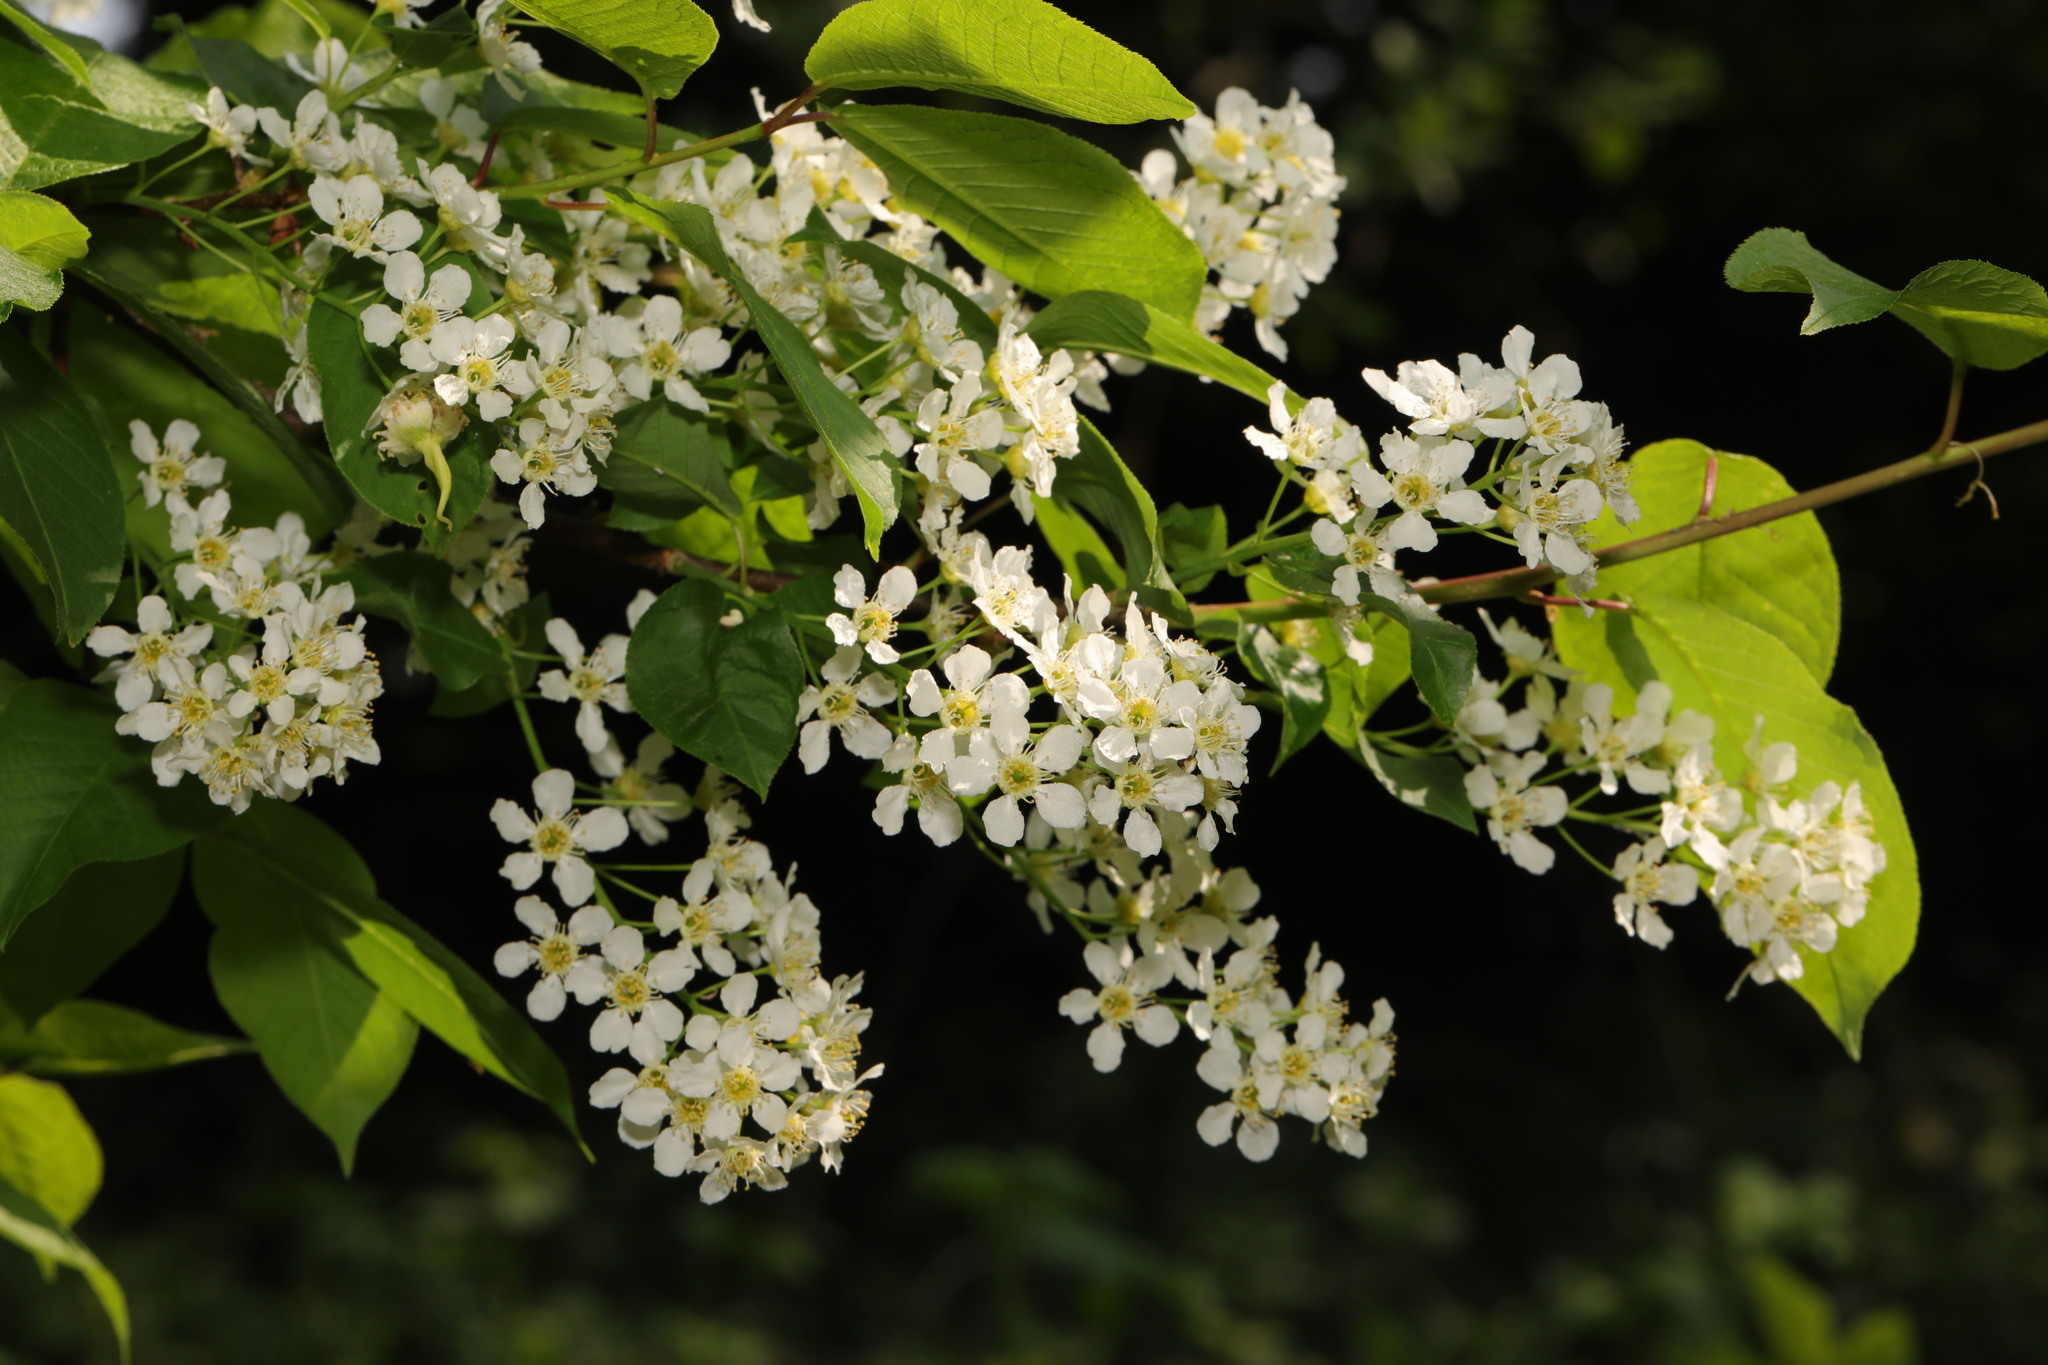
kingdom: Plantae
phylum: Tracheophyta
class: Magnoliopsida
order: Rosales
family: Rosaceae
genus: Prunus
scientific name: Prunus padus
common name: Bird cherry
